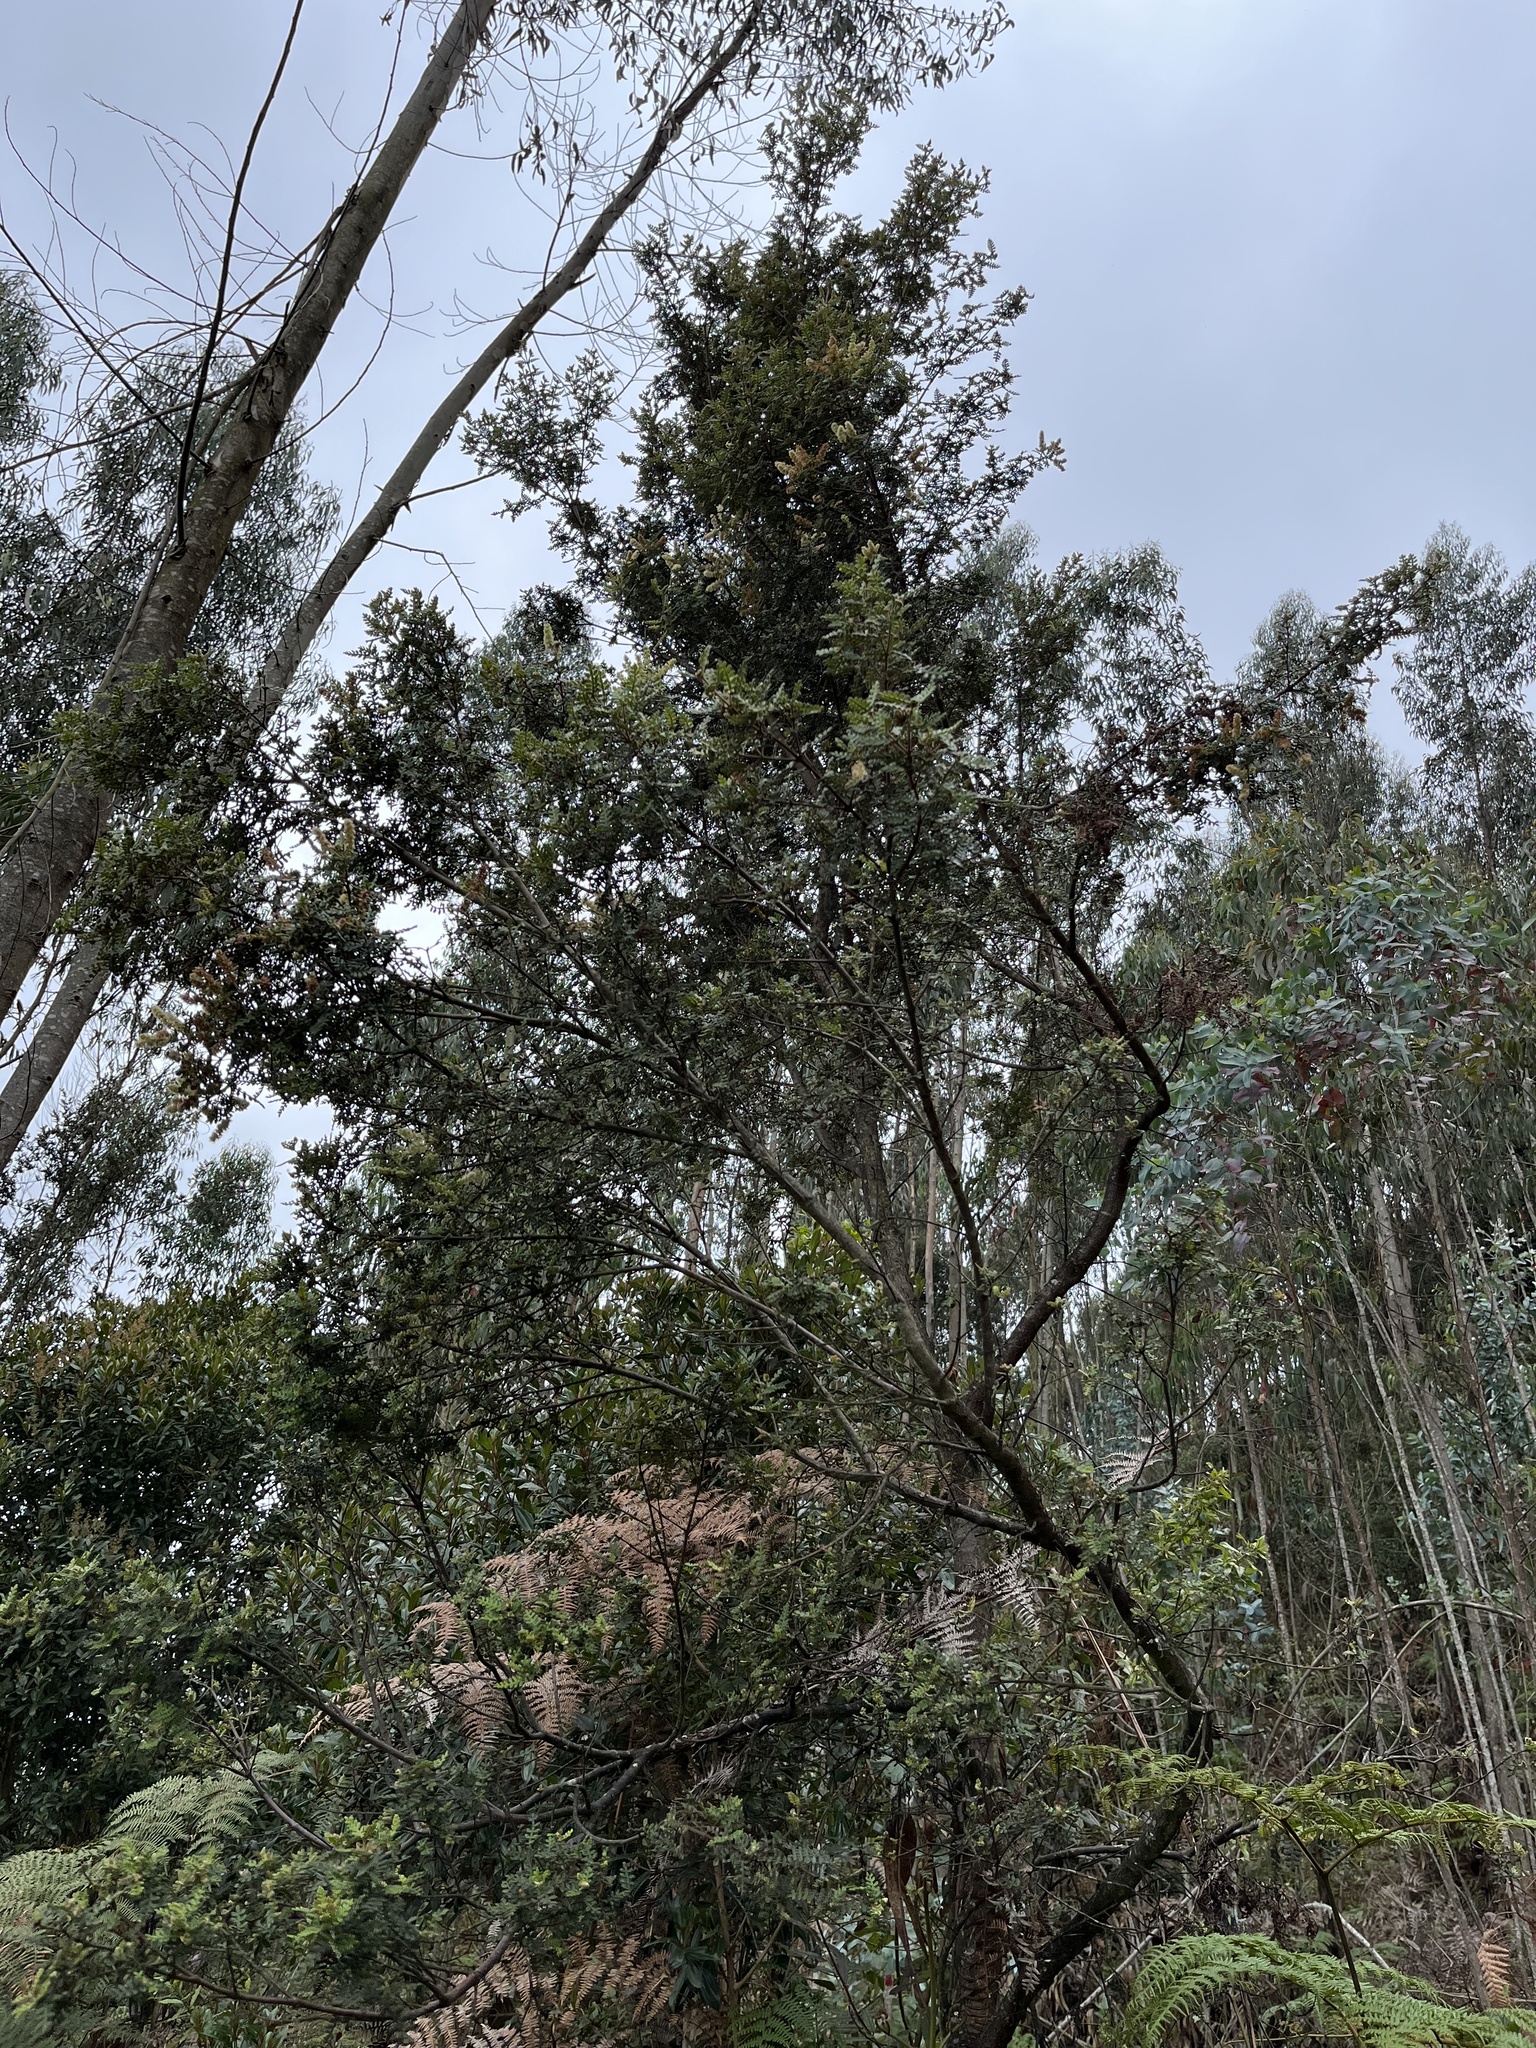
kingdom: Plantae
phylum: Tracheophyta
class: Magnoliopsida
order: Oxalidales
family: Cunoniaceae
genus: Weinmannia
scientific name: Weinmannia tomentosa
